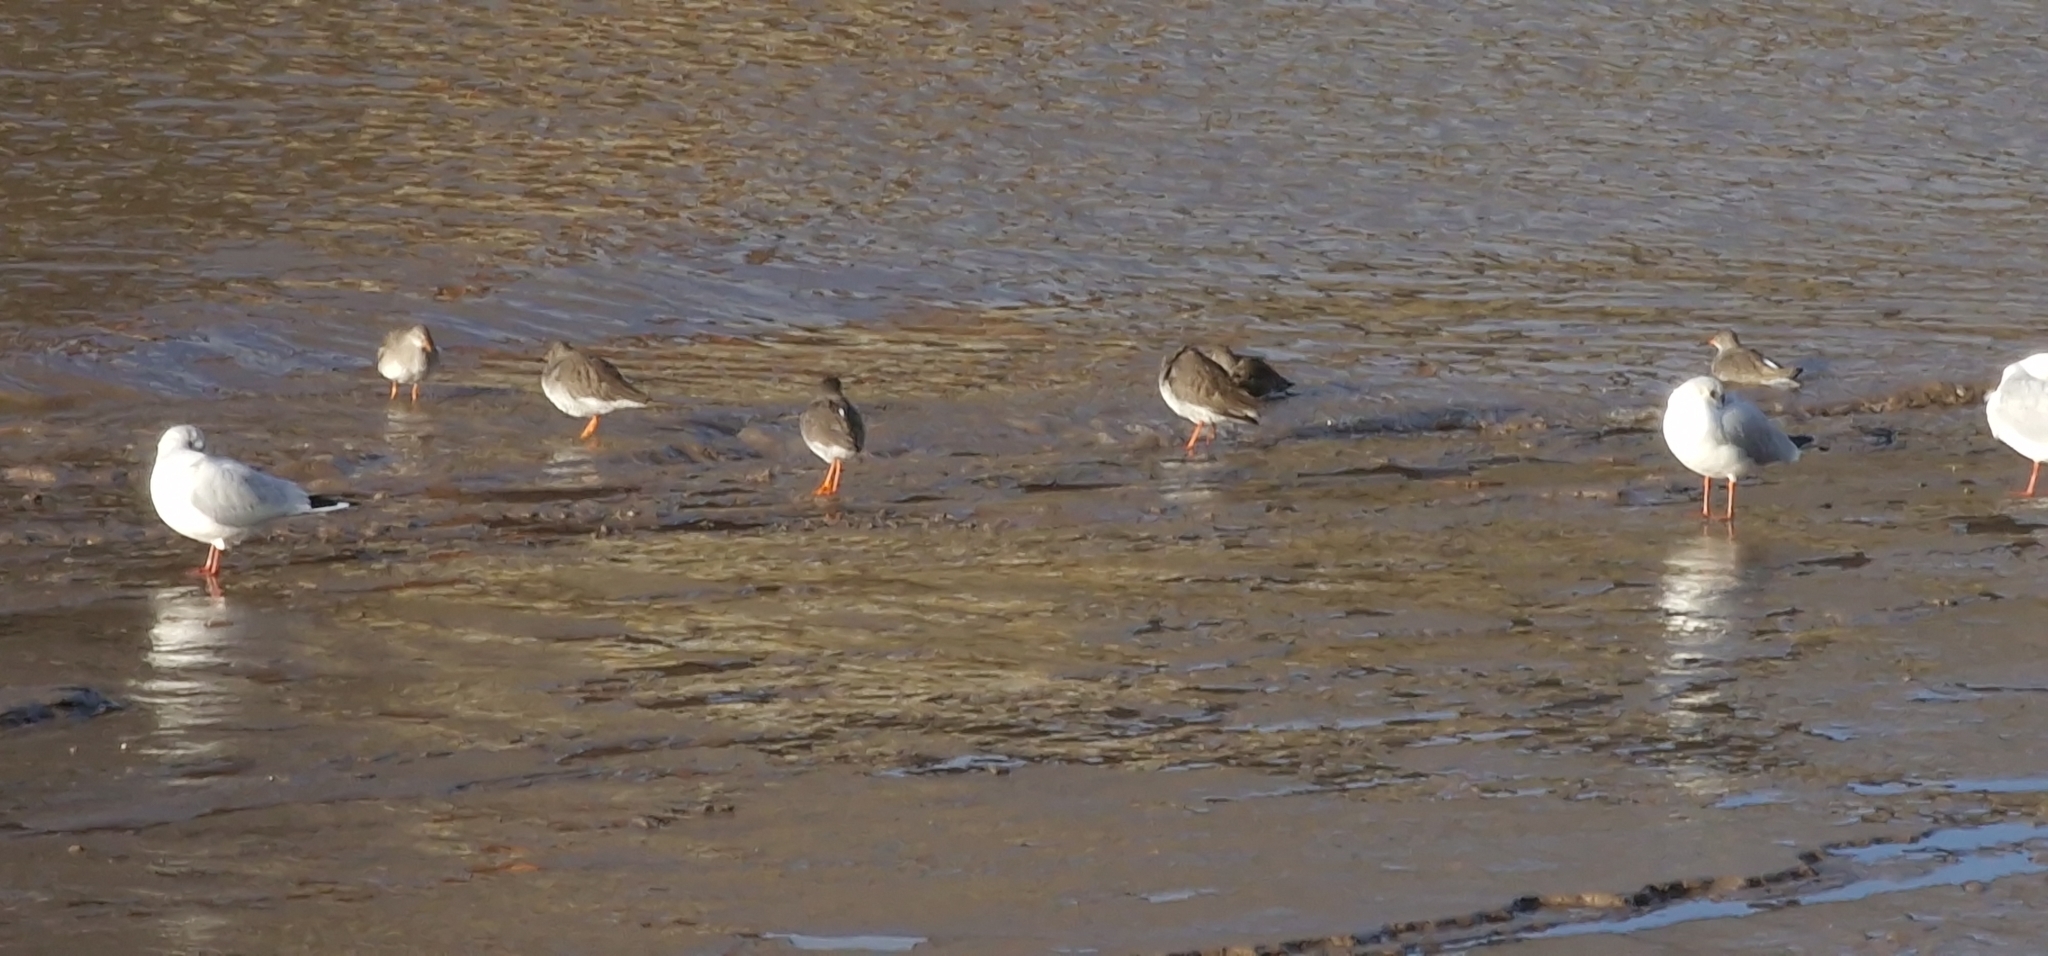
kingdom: Animalia
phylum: Chordata
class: Aves
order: Charadriiformes
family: Scolopacidae
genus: Tringa
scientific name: Tringa totanus
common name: Common redshank
